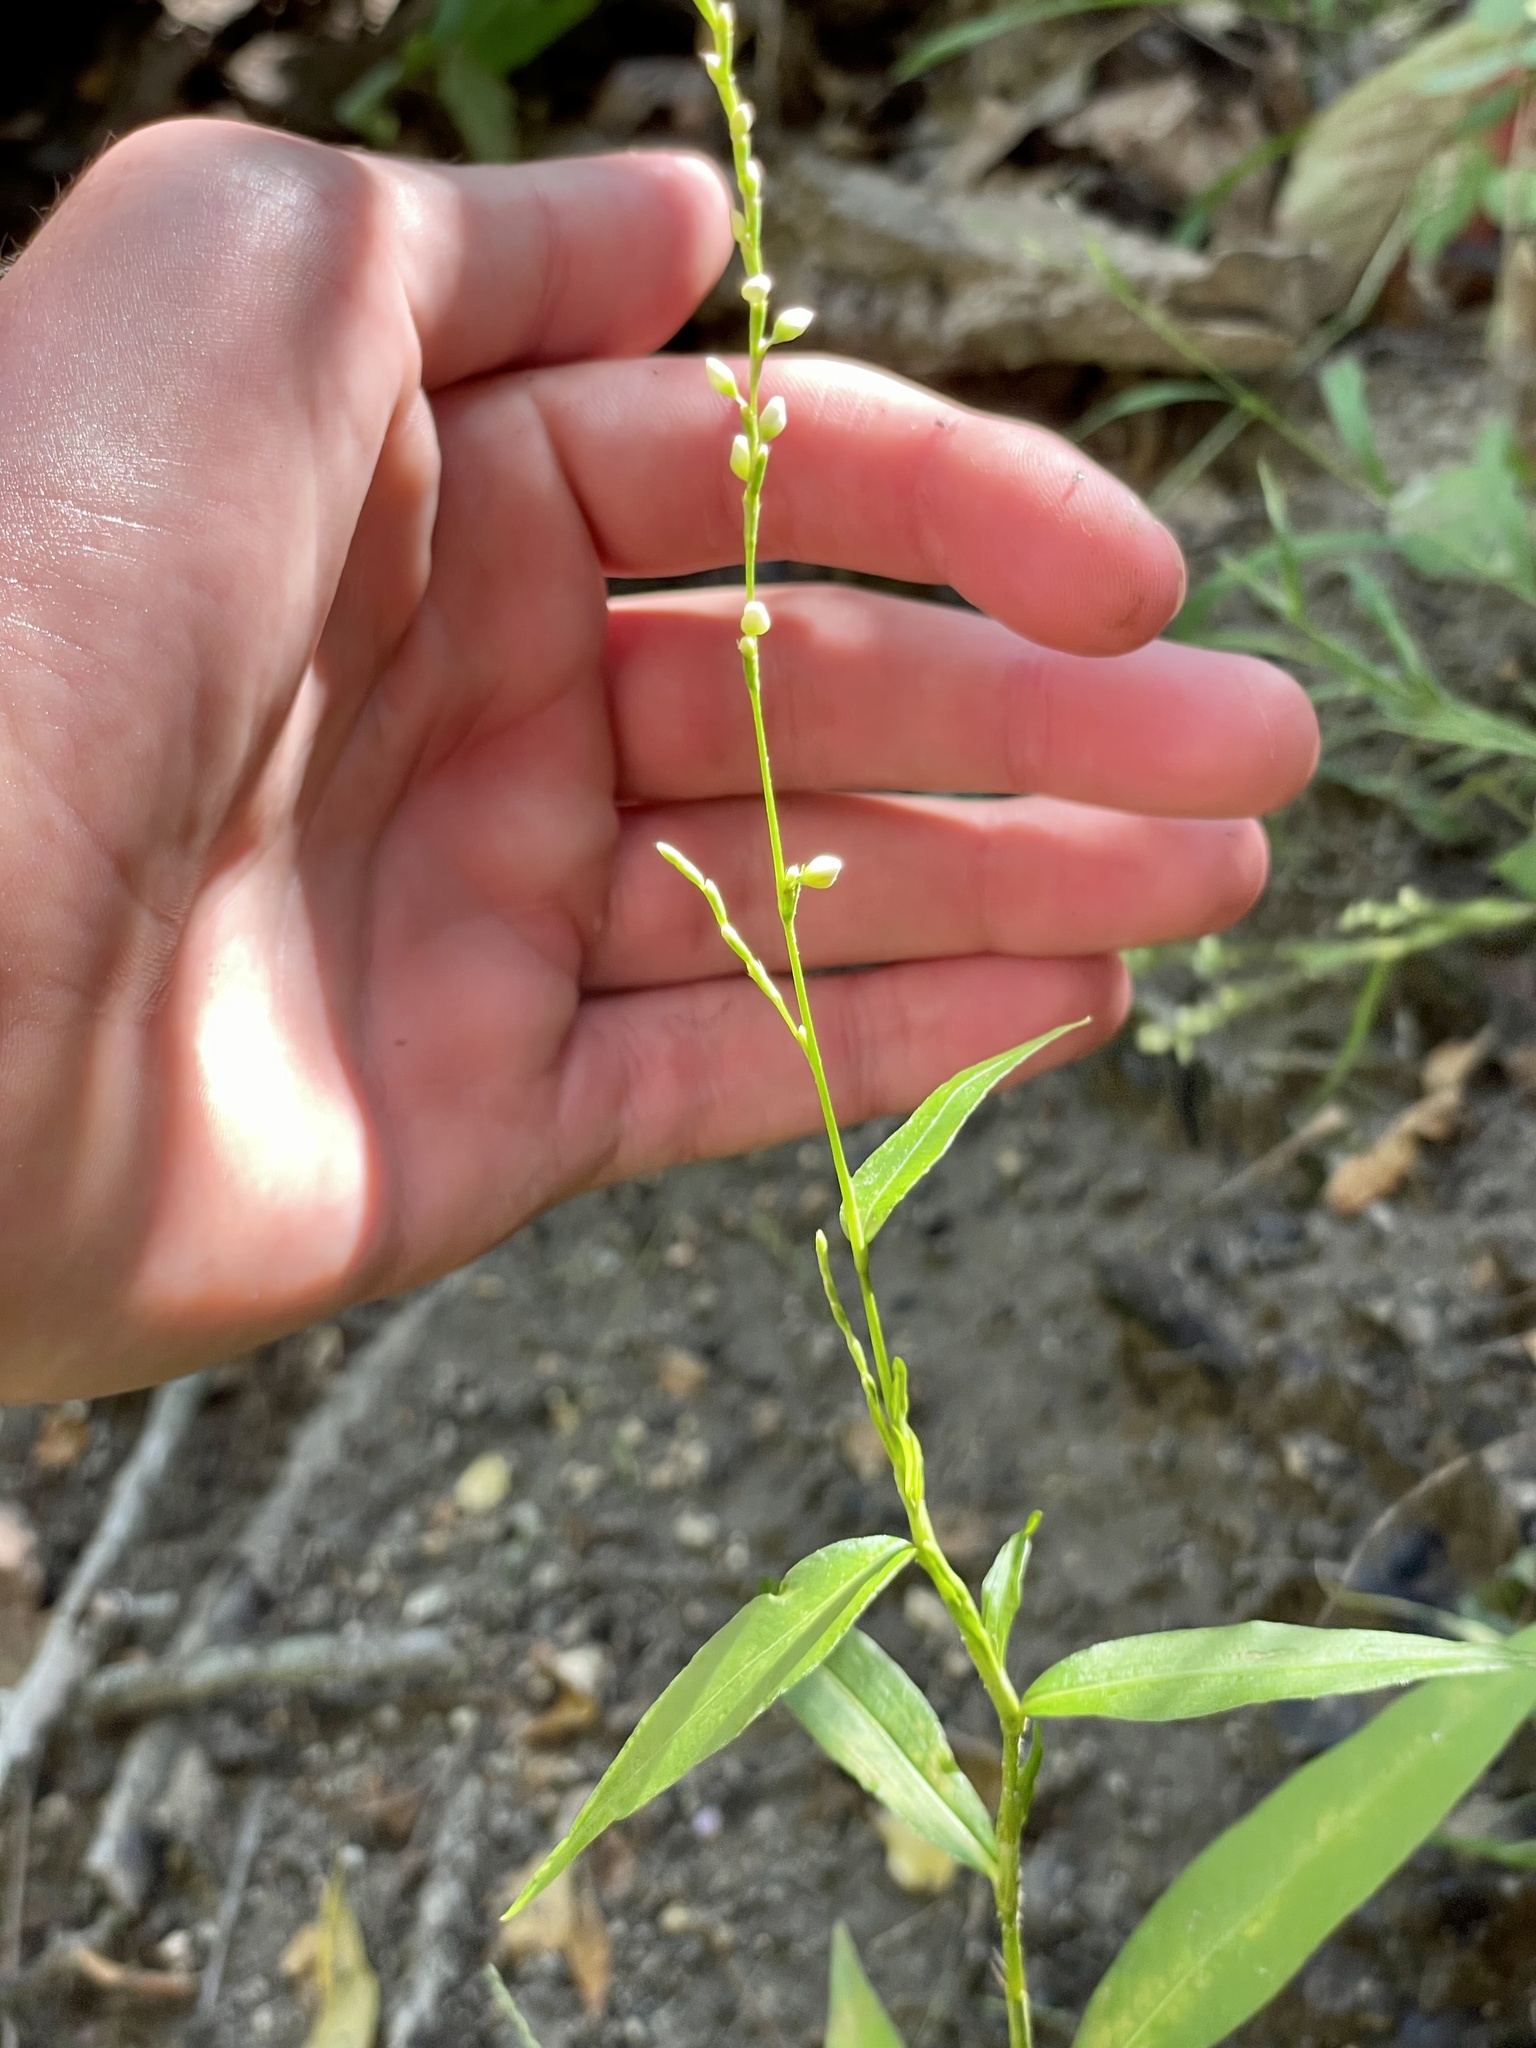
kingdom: Plantae
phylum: Tracheophyta
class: Magnoliopsida
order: Caryophyllales
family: Polygonaceae
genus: Persicaria
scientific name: Persicaria virginiana
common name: Jumpseed
